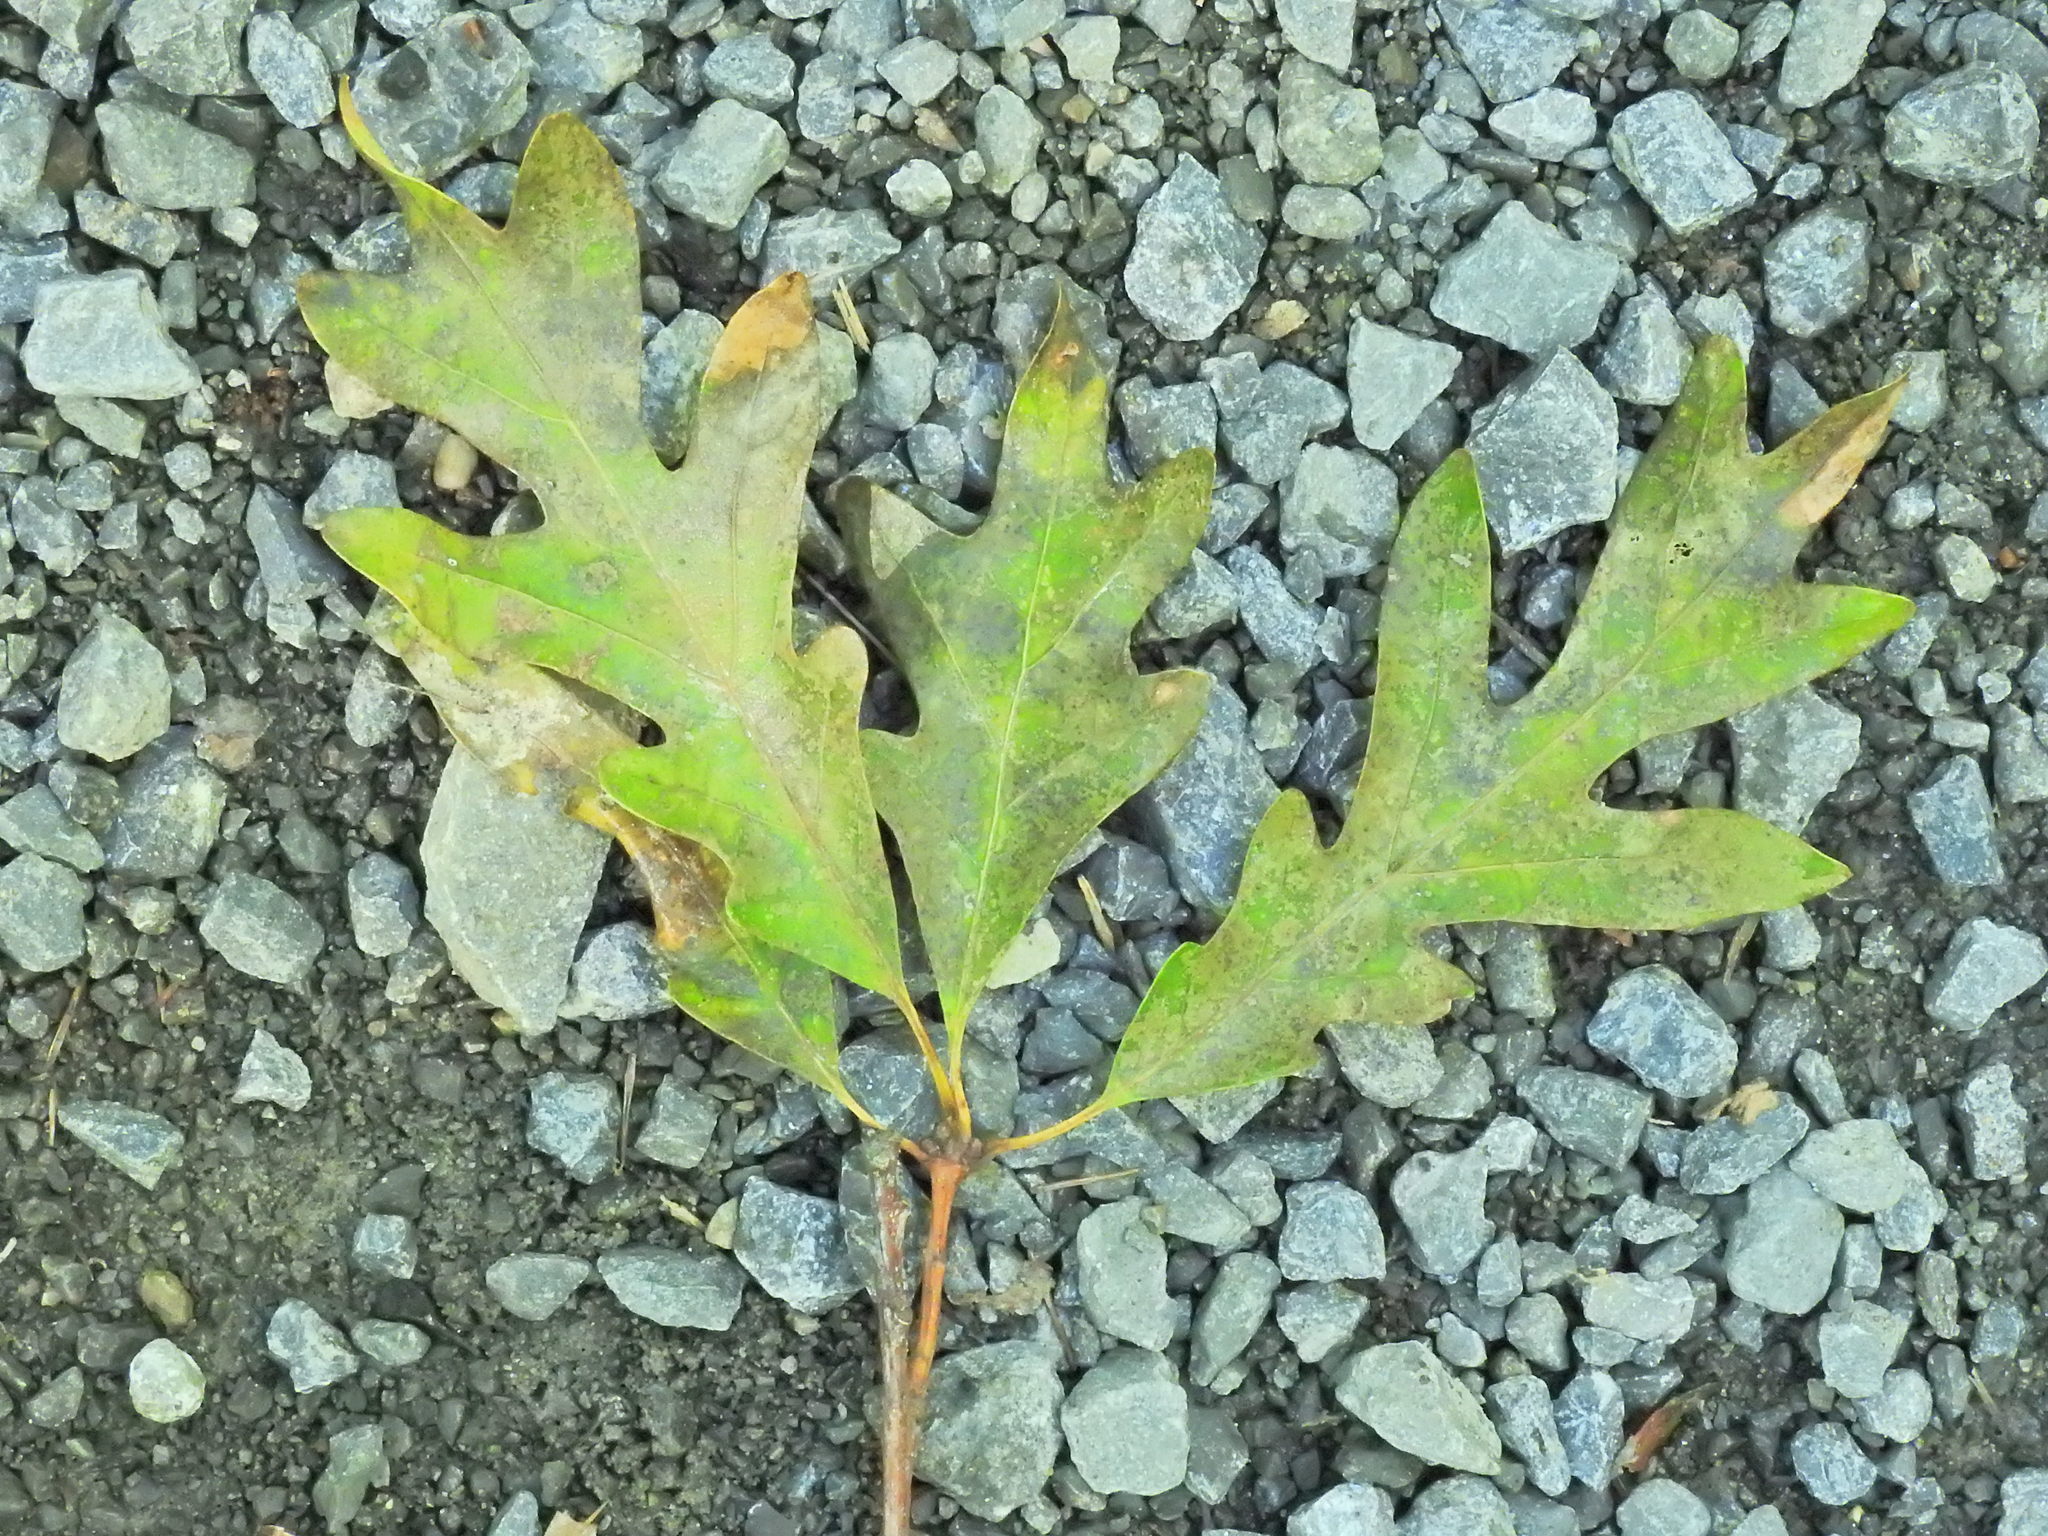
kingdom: Plantae
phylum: Tracheophyta
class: Magnoliopsida
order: Fagales
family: Fagaceae
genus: Quercus
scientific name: Quercus alba
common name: White oak
